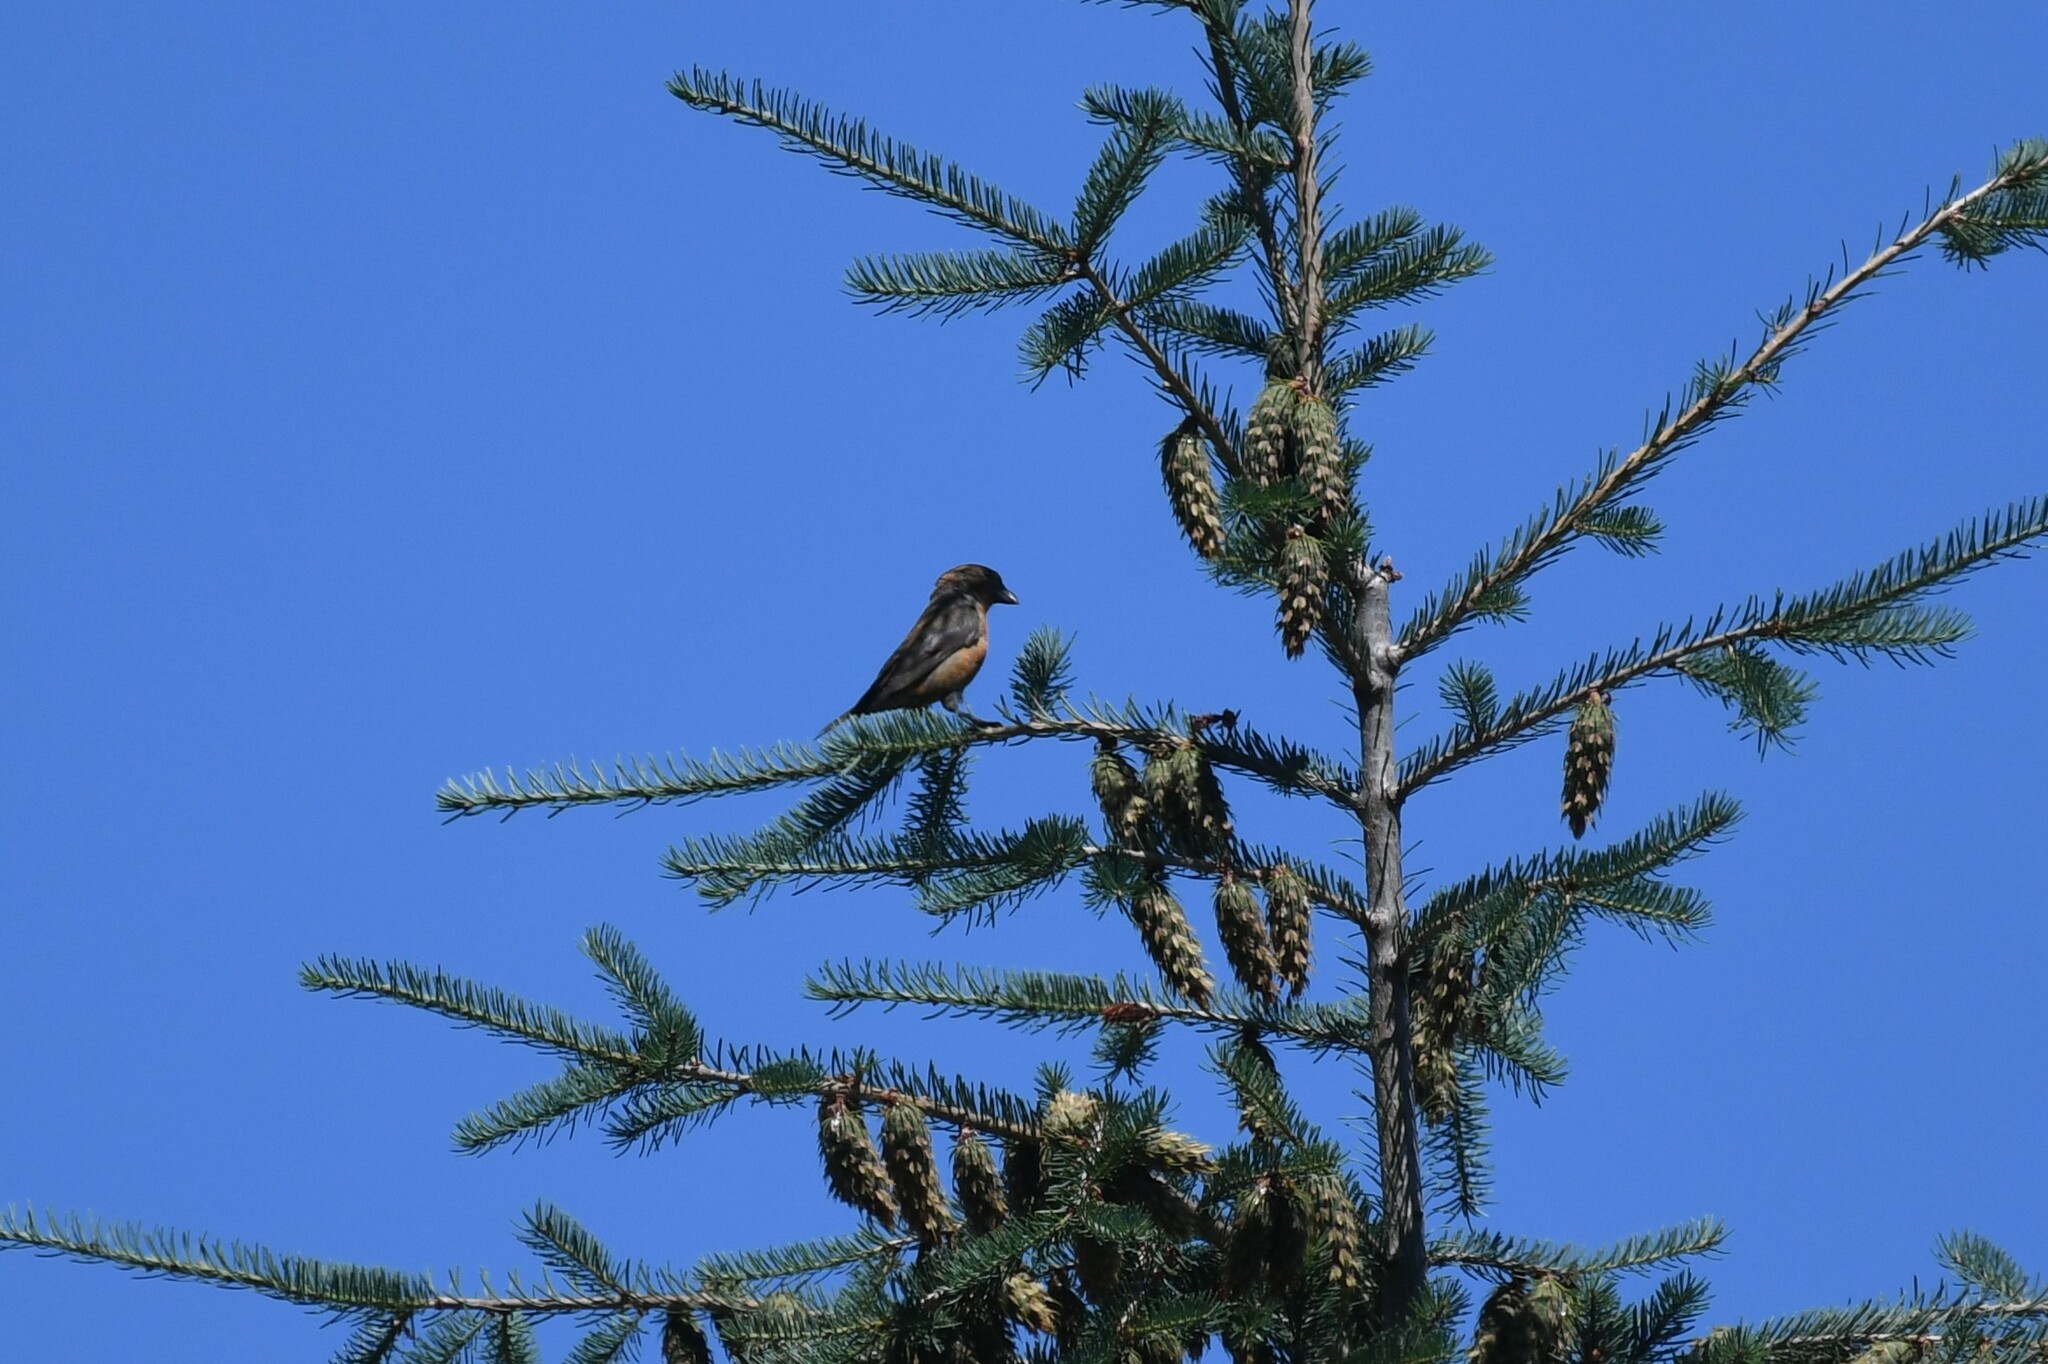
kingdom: Animalia
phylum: Chordata
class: Aves
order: Passeriformes
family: Fringillidae
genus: Loxia
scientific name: Loxia curvirostra
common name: Red crossbill
